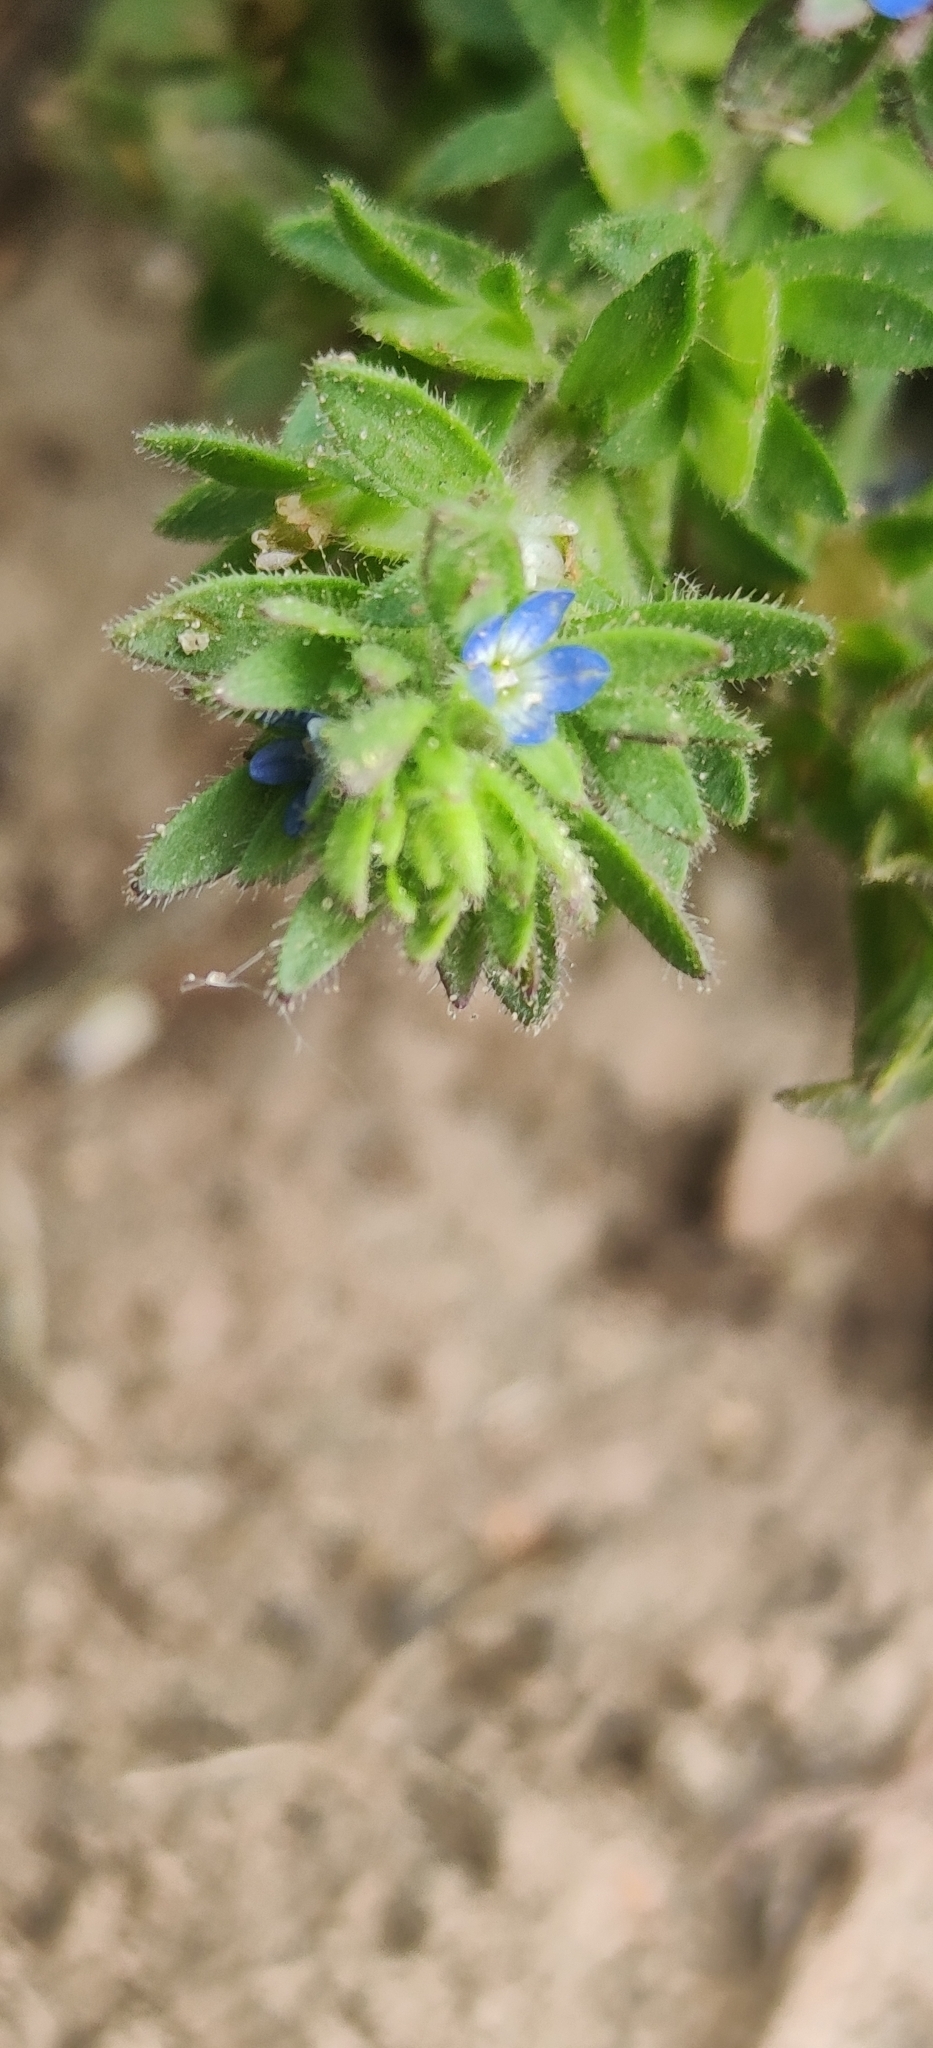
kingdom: Plantae
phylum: Tracheophyta
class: Magnoliopsida
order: Lamiales
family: Plantaginaceae
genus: Veronica
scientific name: Veronica arvensis
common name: Corn speedwell
